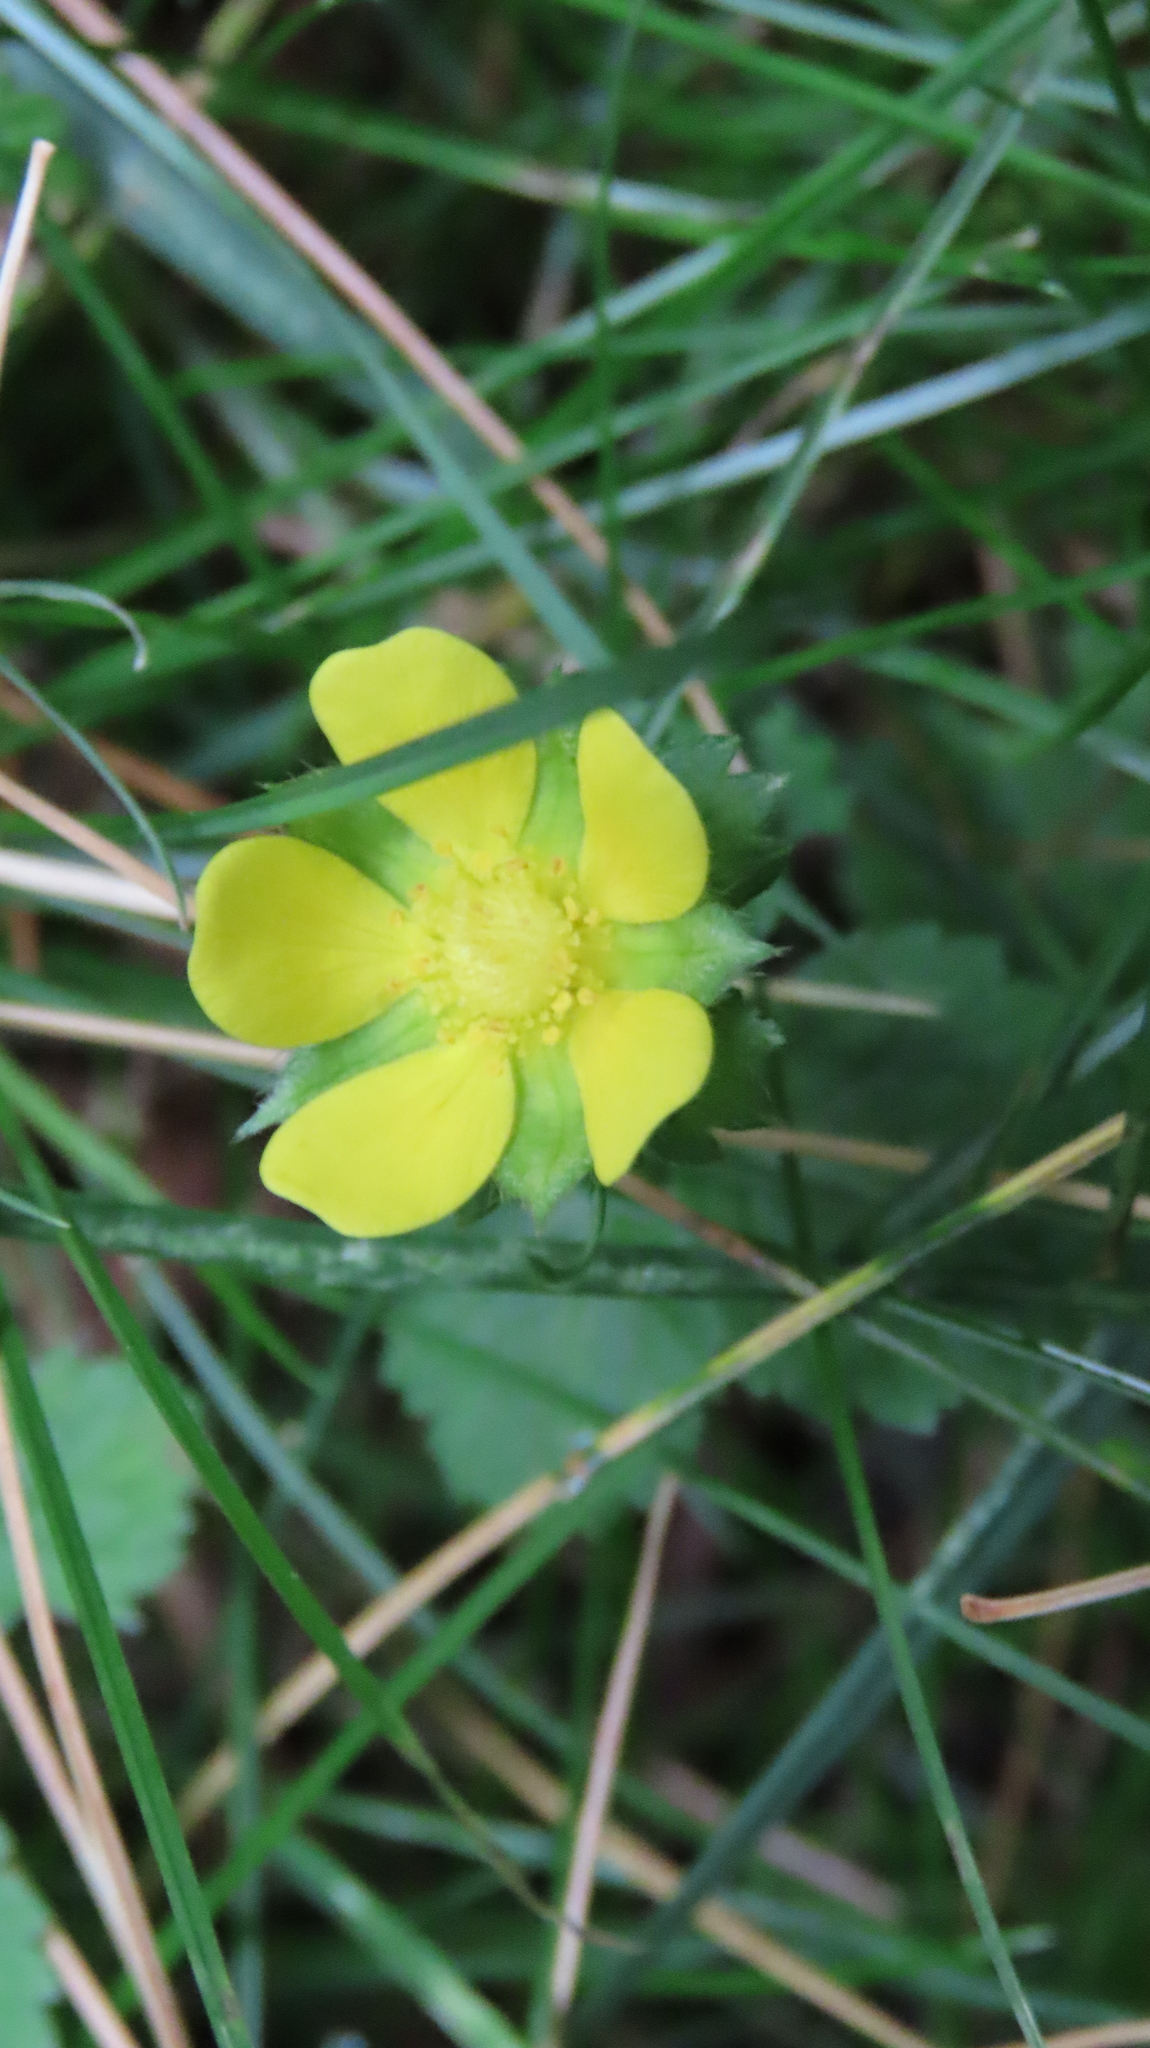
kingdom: Plantae
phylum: Tracheophyta
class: Magnoliopsida
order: Rosales
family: Rosaceae
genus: Potentilla
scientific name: Potentilla indica
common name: Yellow-flowered strawberry
